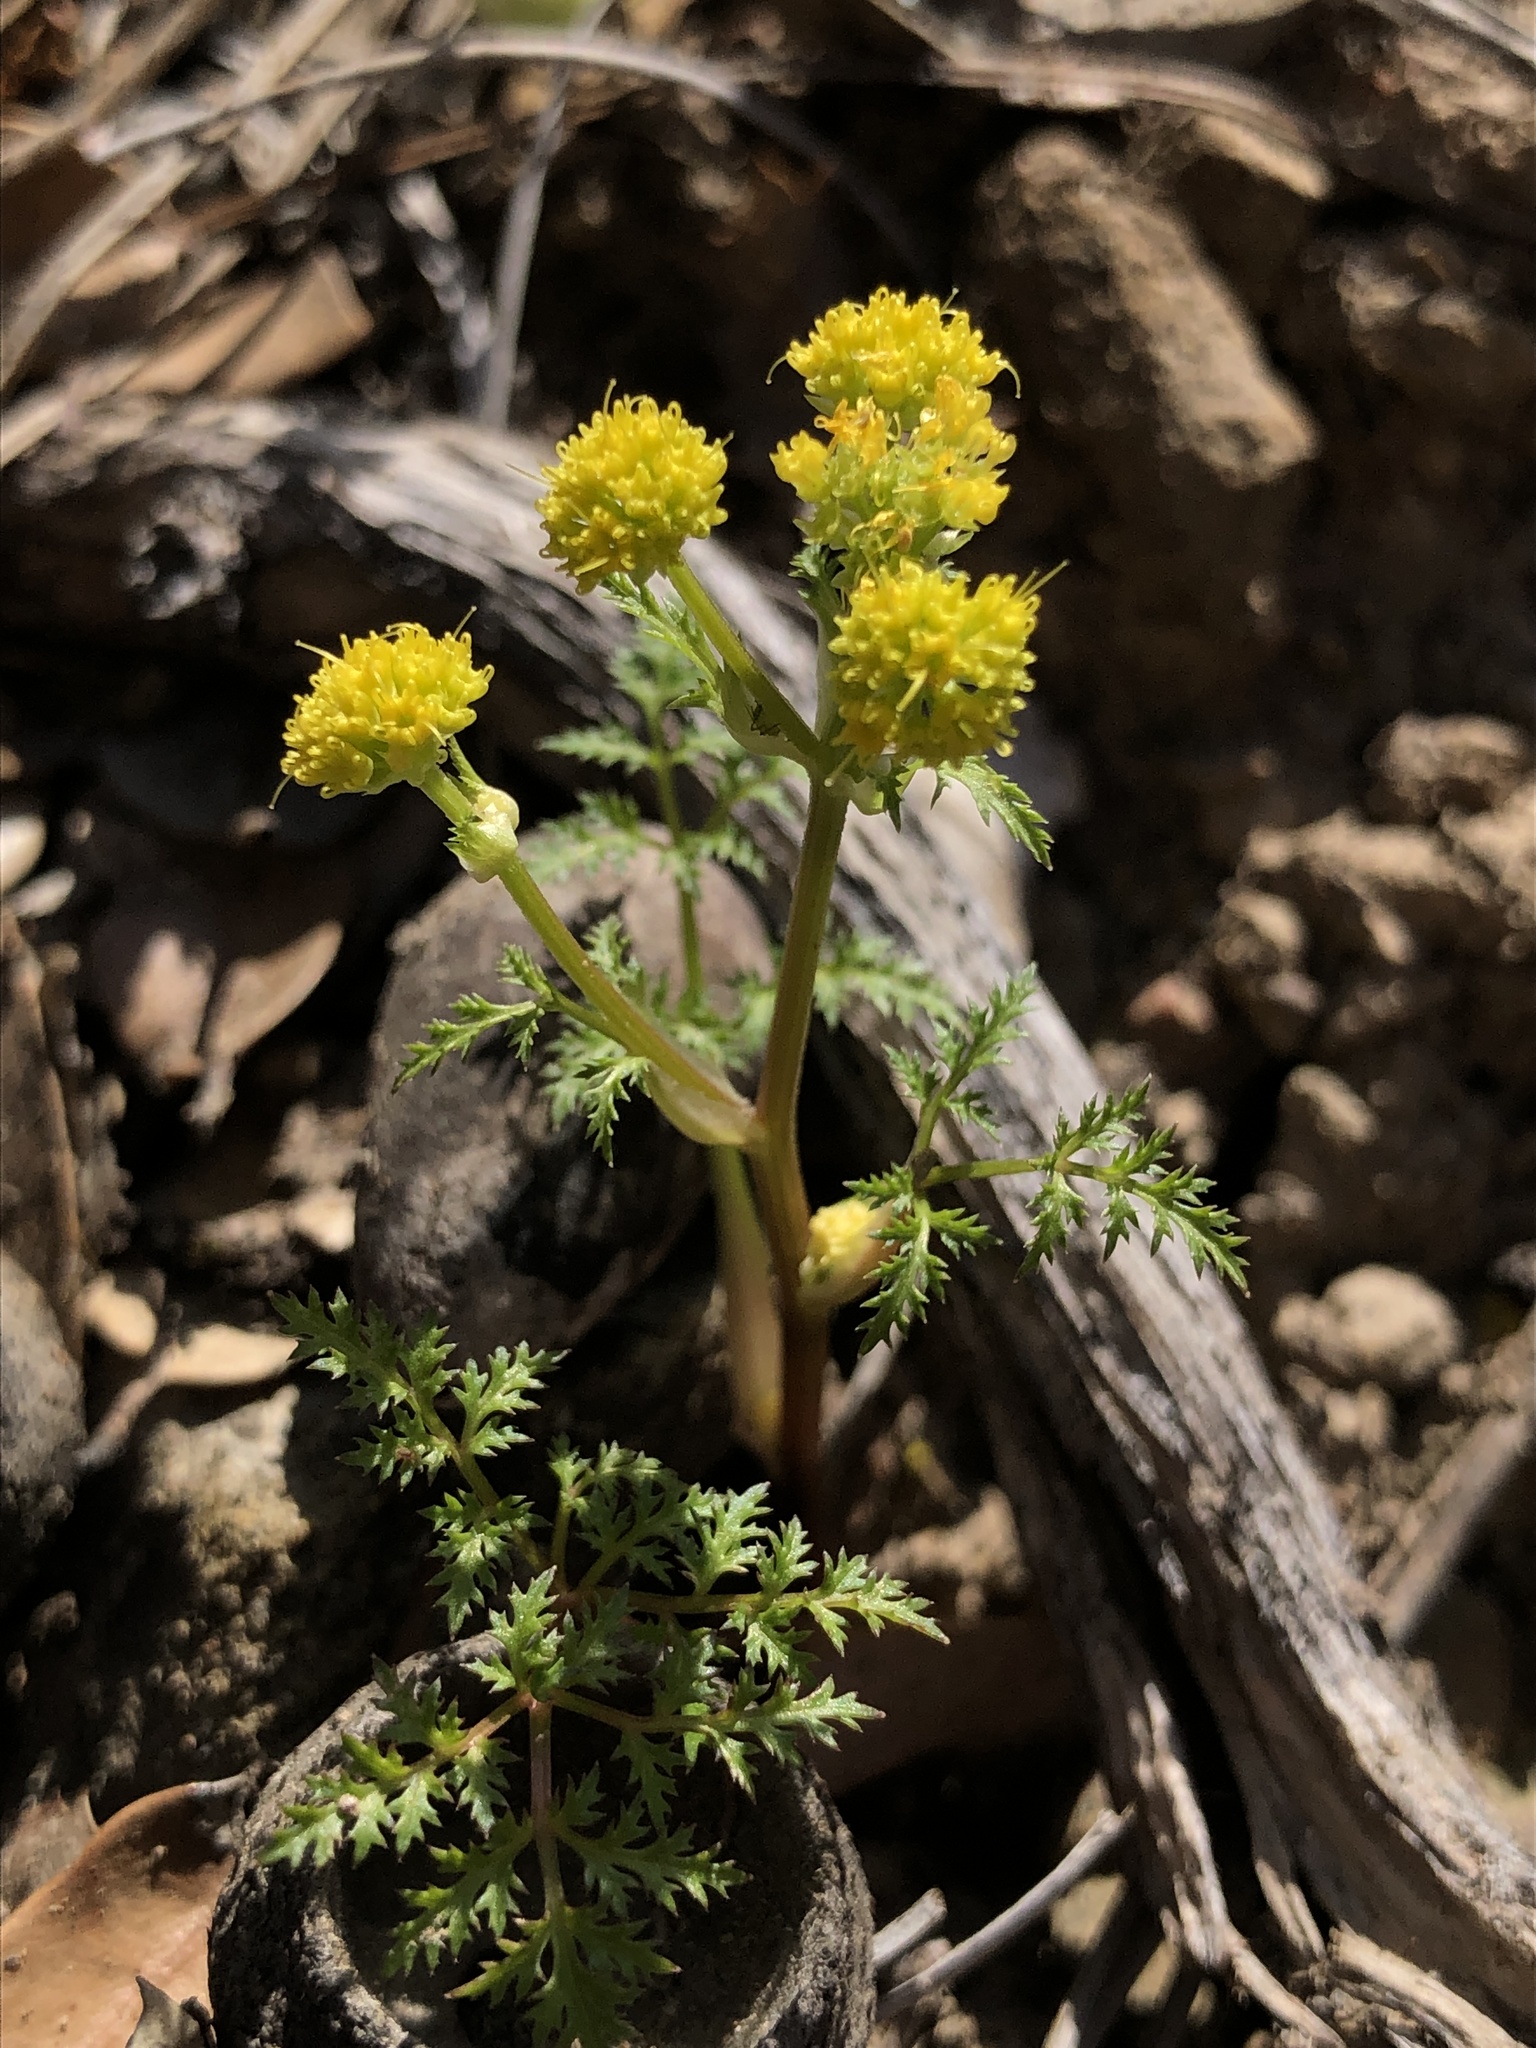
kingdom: Plantae
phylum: Tracheophyta
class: Magnoliopsida
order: Apiales
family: Apiaceae
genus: Sanicula
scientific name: Sanicula tuberosa
